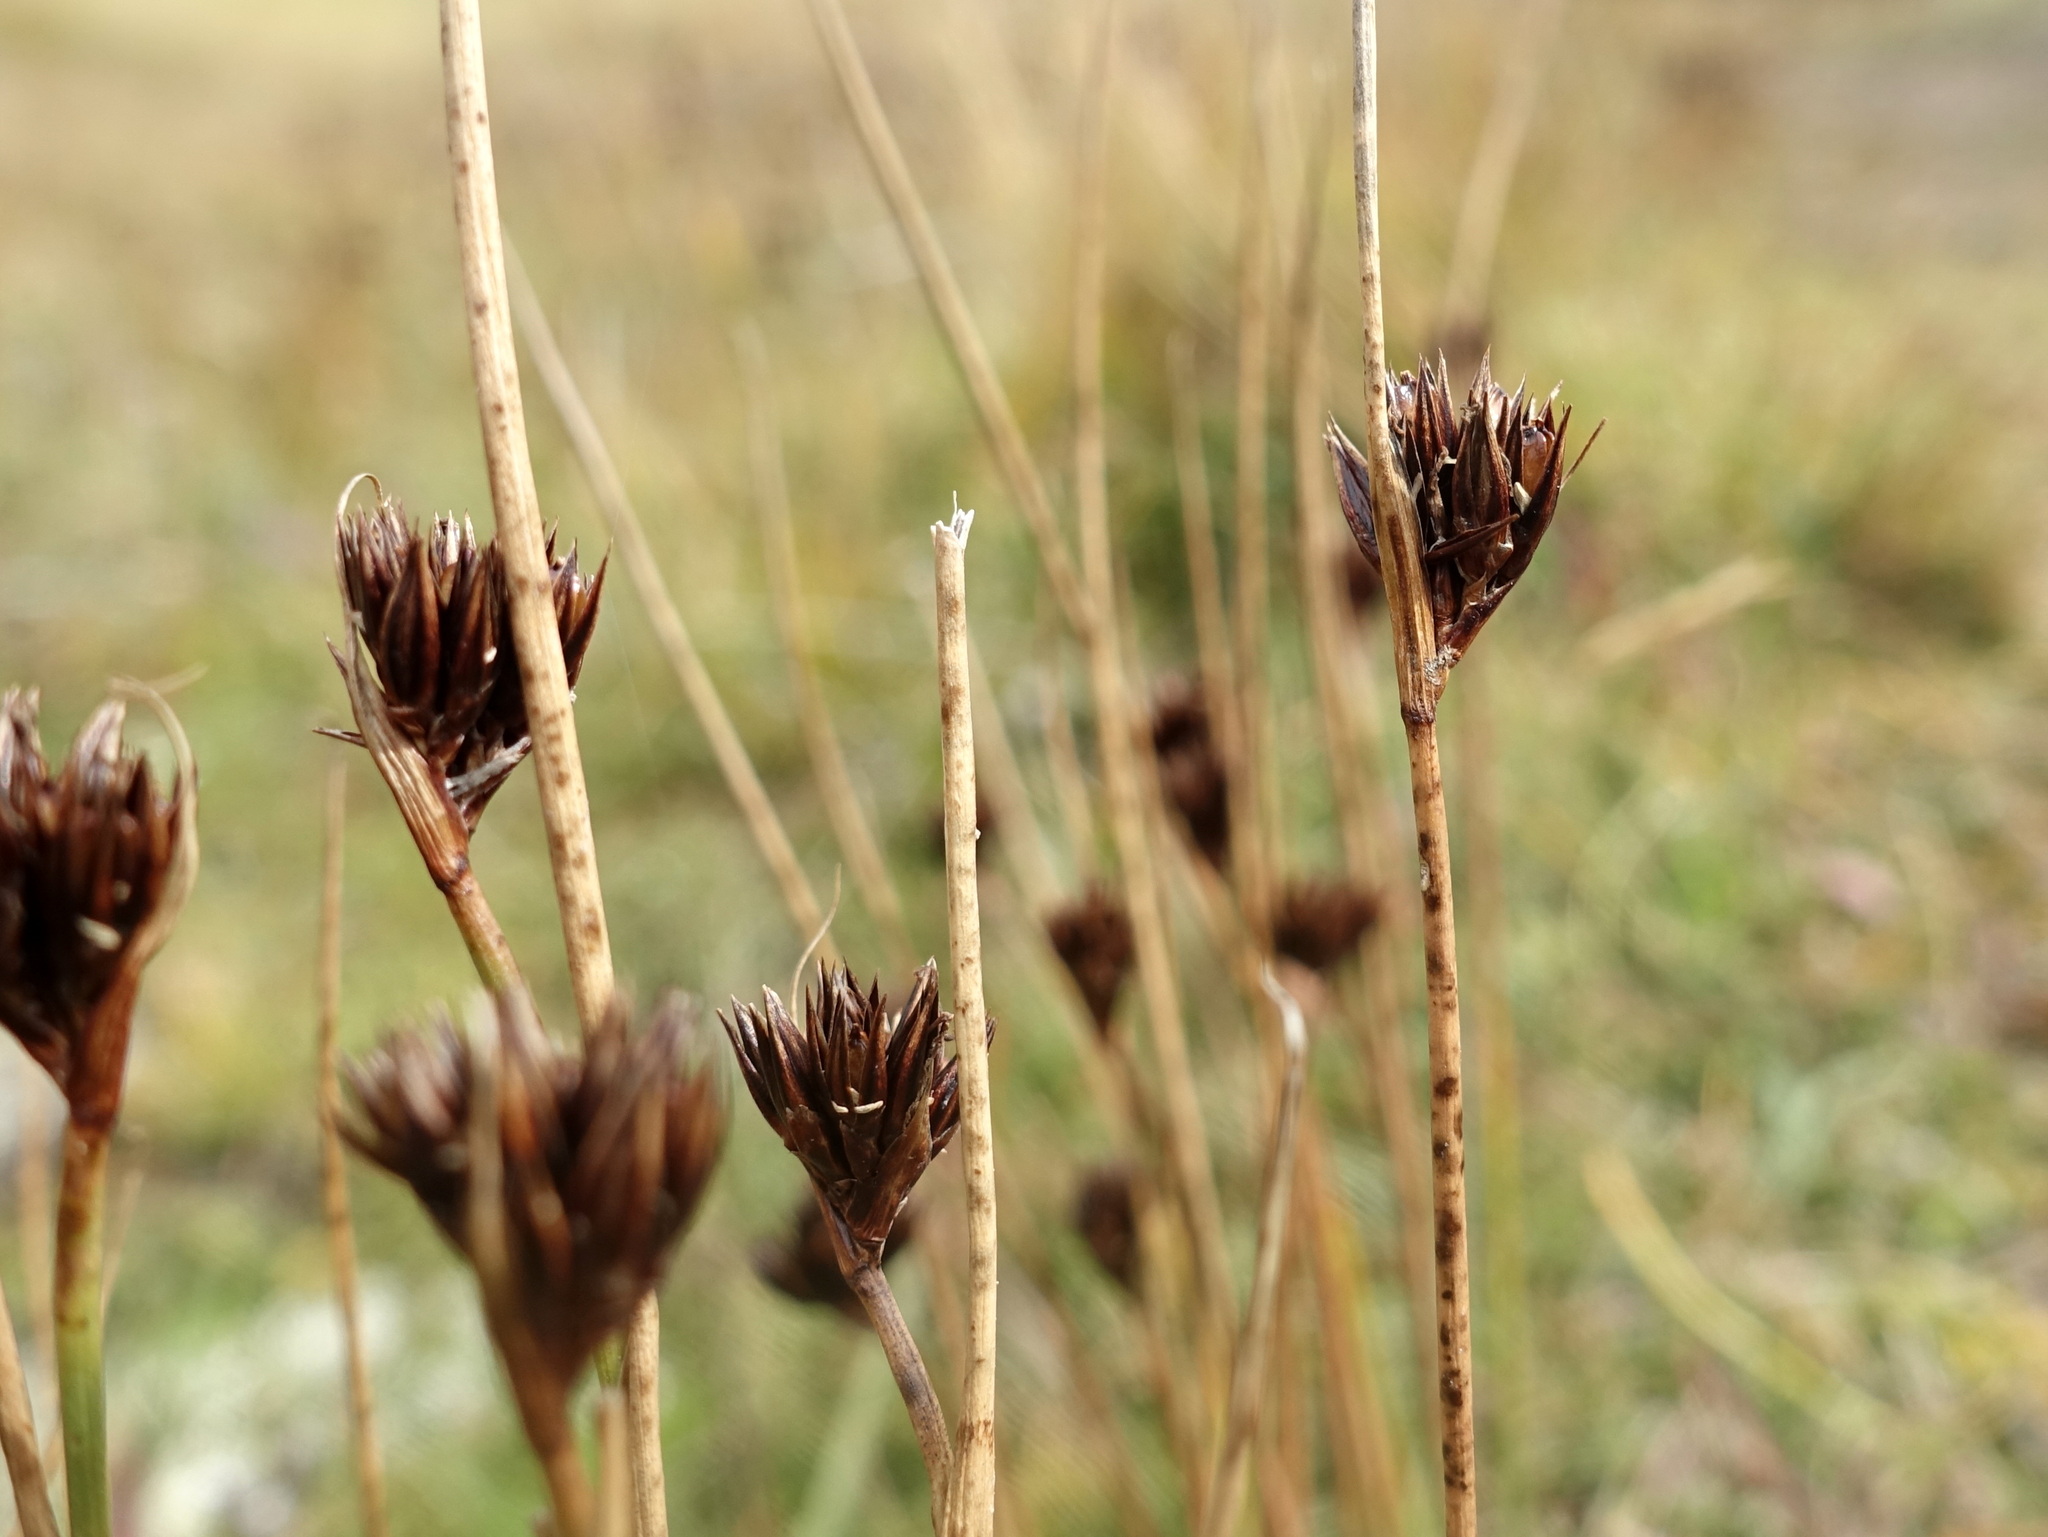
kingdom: Plantae
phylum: Tracheophyta
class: Liliopsida
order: Poales
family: Juncaceae
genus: Juncus
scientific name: Juncus jacquinii
